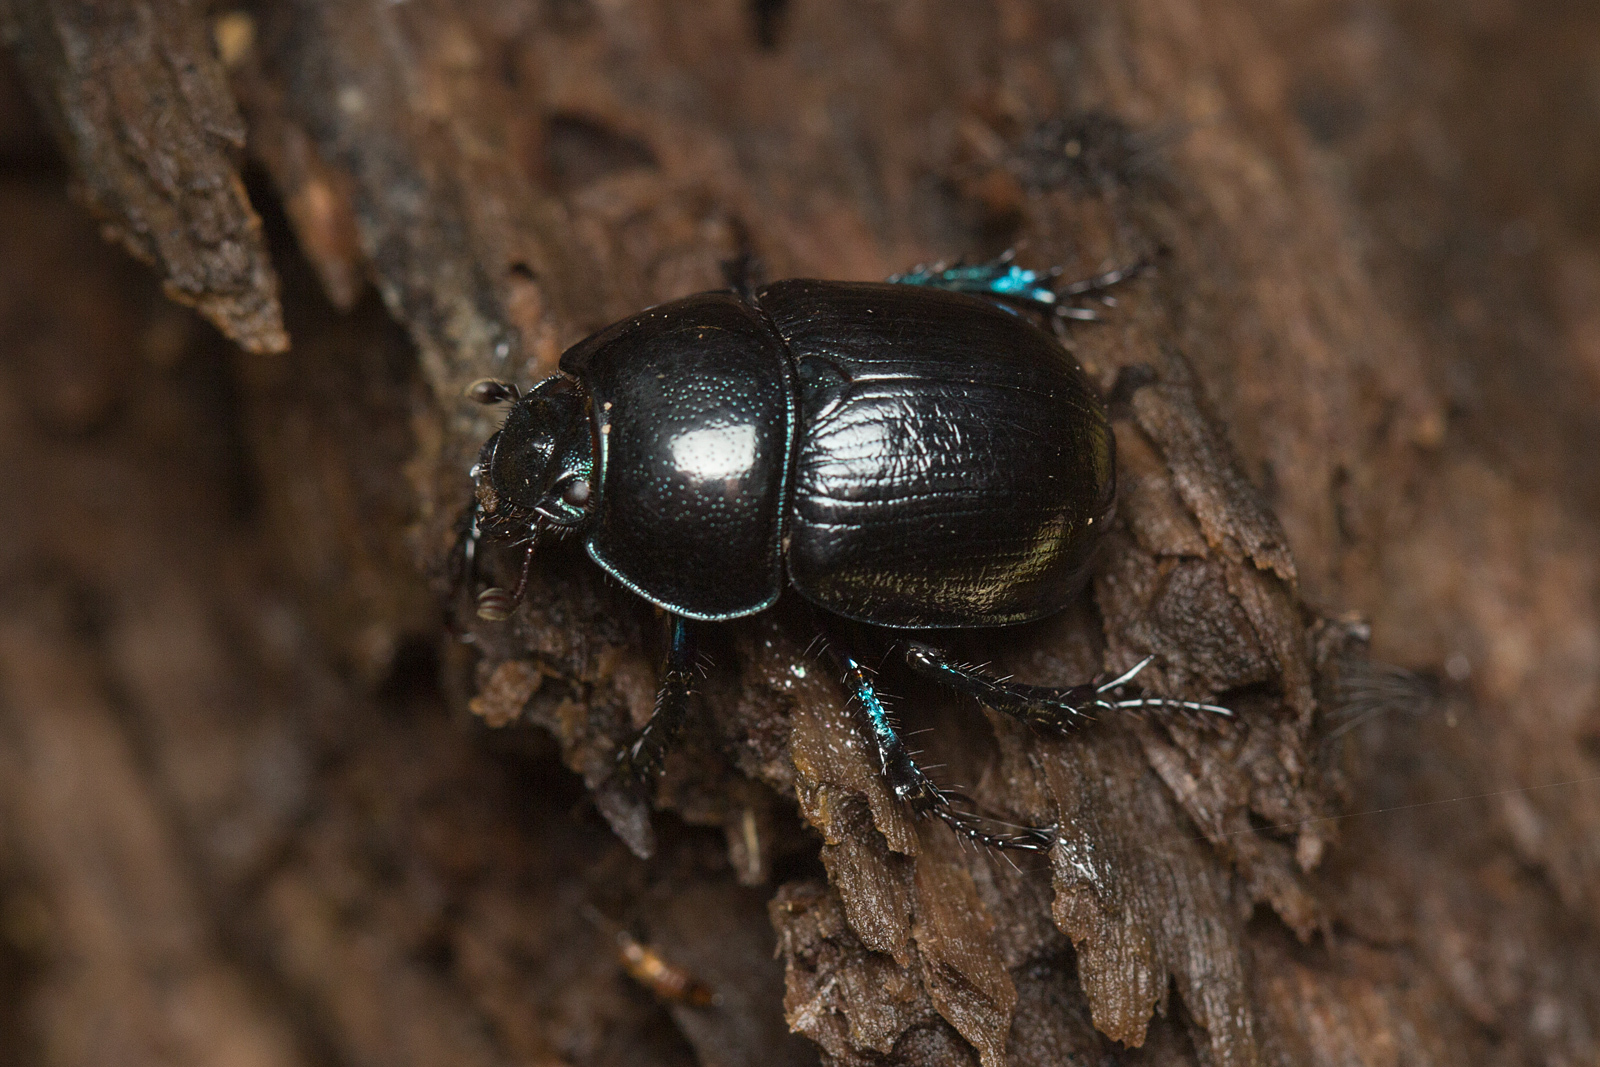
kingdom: Animalia
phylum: Arthropoda
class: Insecta
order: Coleoptera
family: Geotrupidae
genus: Anoplotrupes
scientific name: Anoplotrupes stercorosus
